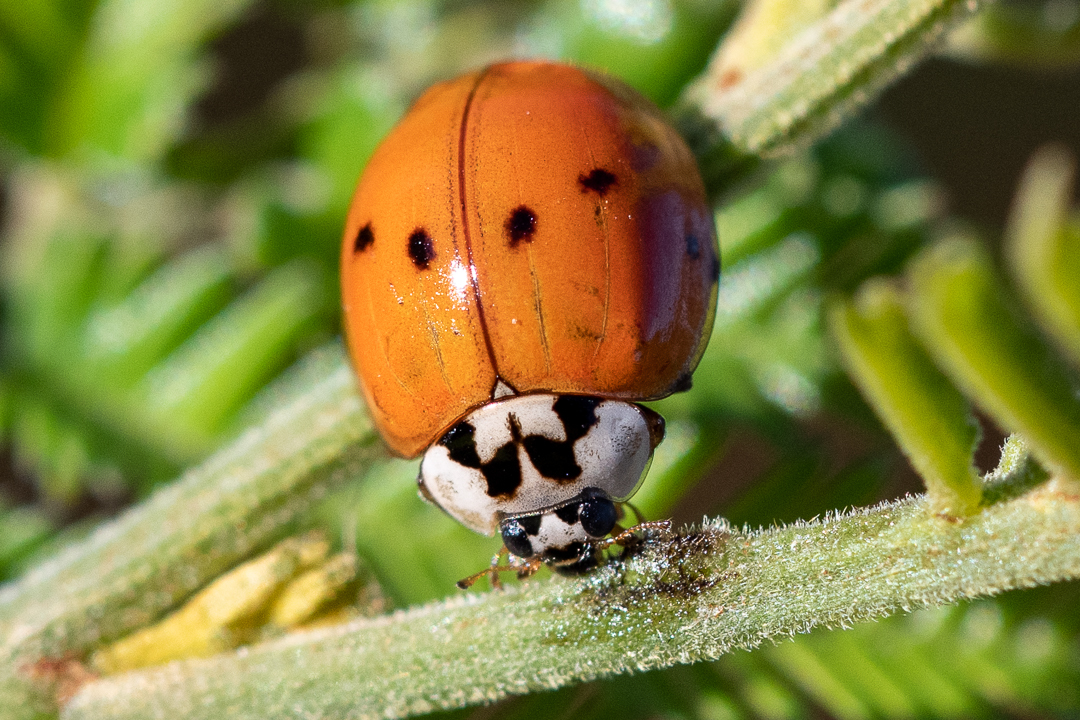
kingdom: Animalia
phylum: Arthropoda
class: Insecta
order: Coleoptera
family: Coccinellidae
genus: Harmonia
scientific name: Harmonia axyridis
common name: Harlequin ladybird
